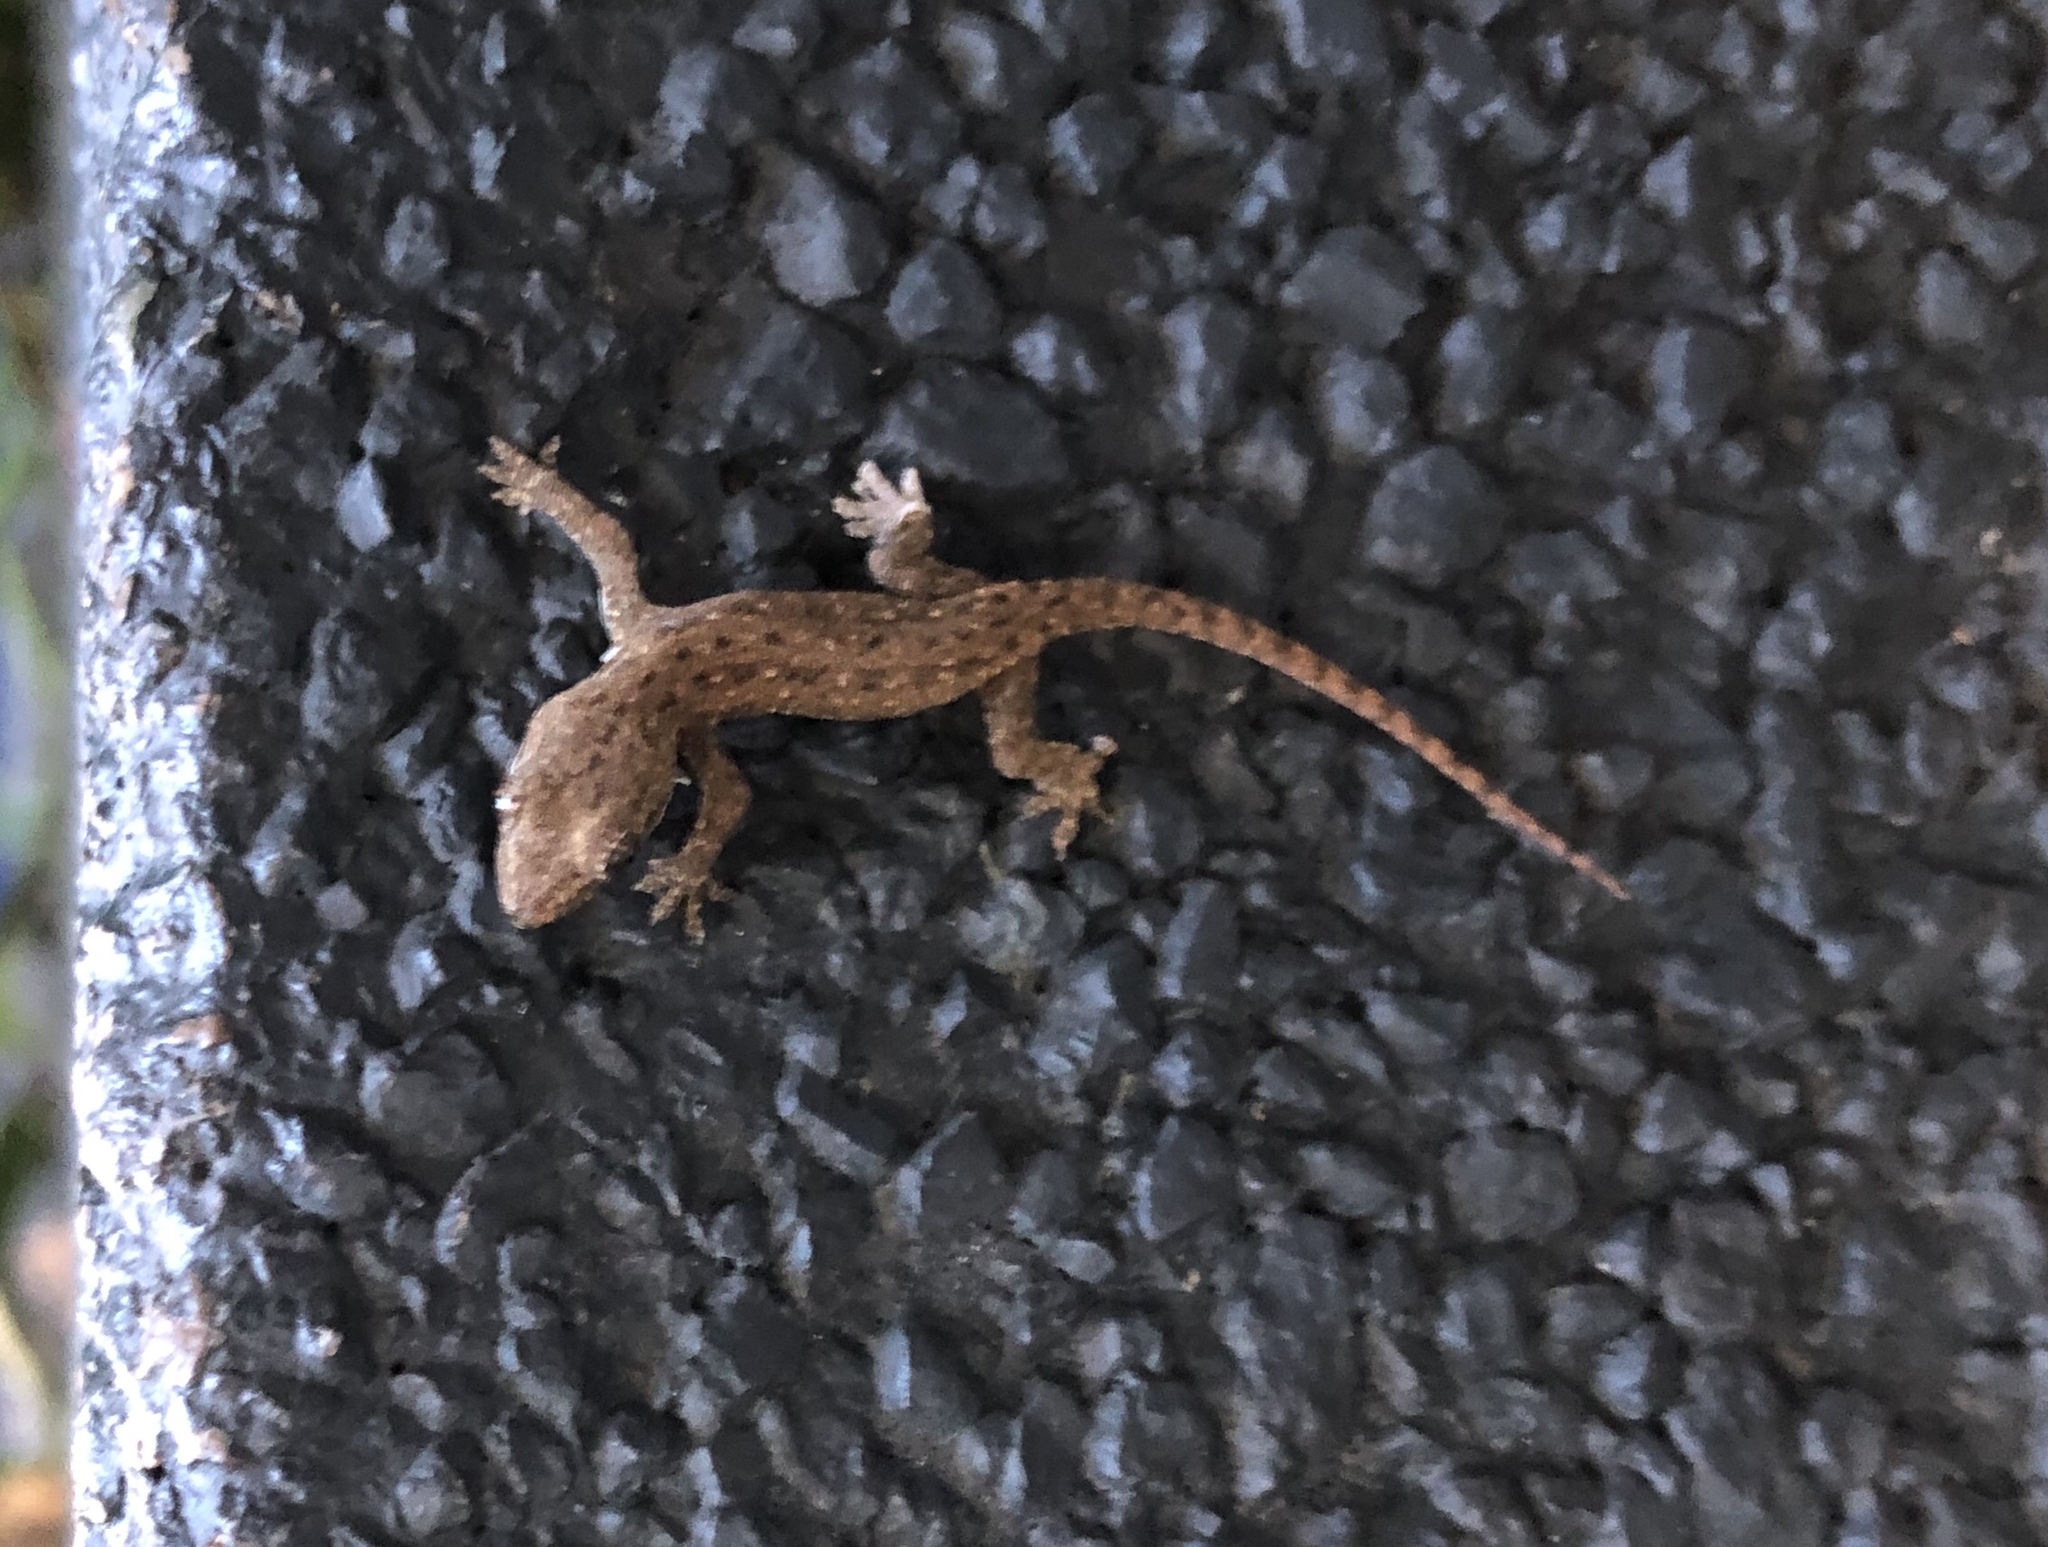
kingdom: Animalia
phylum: Chordata
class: Squamata
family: Gekkonidae
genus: Hemidactylus
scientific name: Hemidactylus frenatus
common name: Common house gecko
